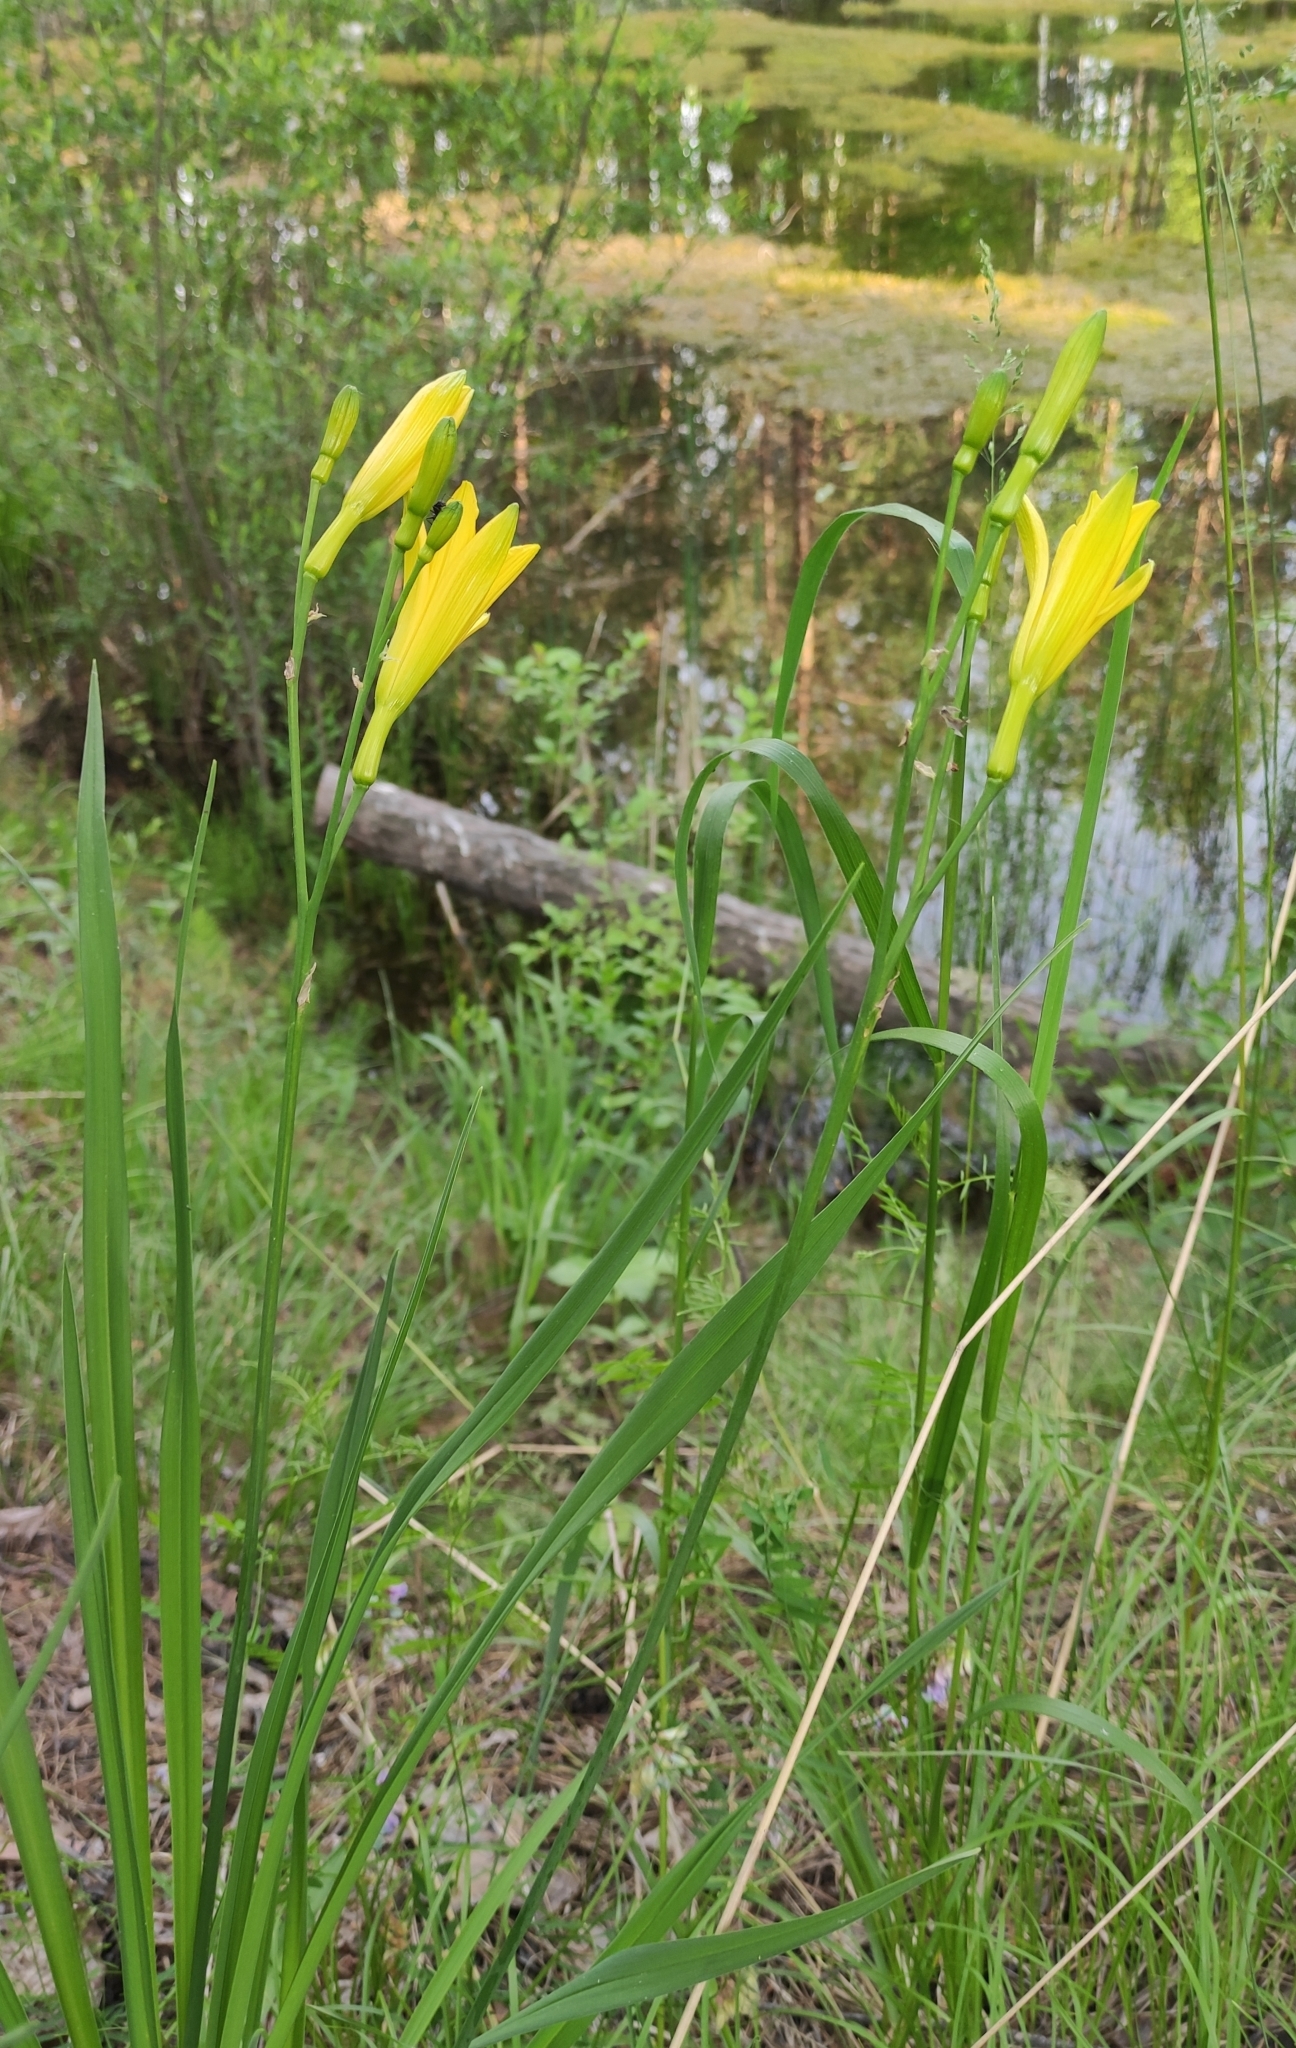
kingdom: Plantae
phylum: Tracheophyta
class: Liliopsida
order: Asparagales
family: Asphodelaceae
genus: Hemerocallis
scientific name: Hemerocallis minor
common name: Small daylily
